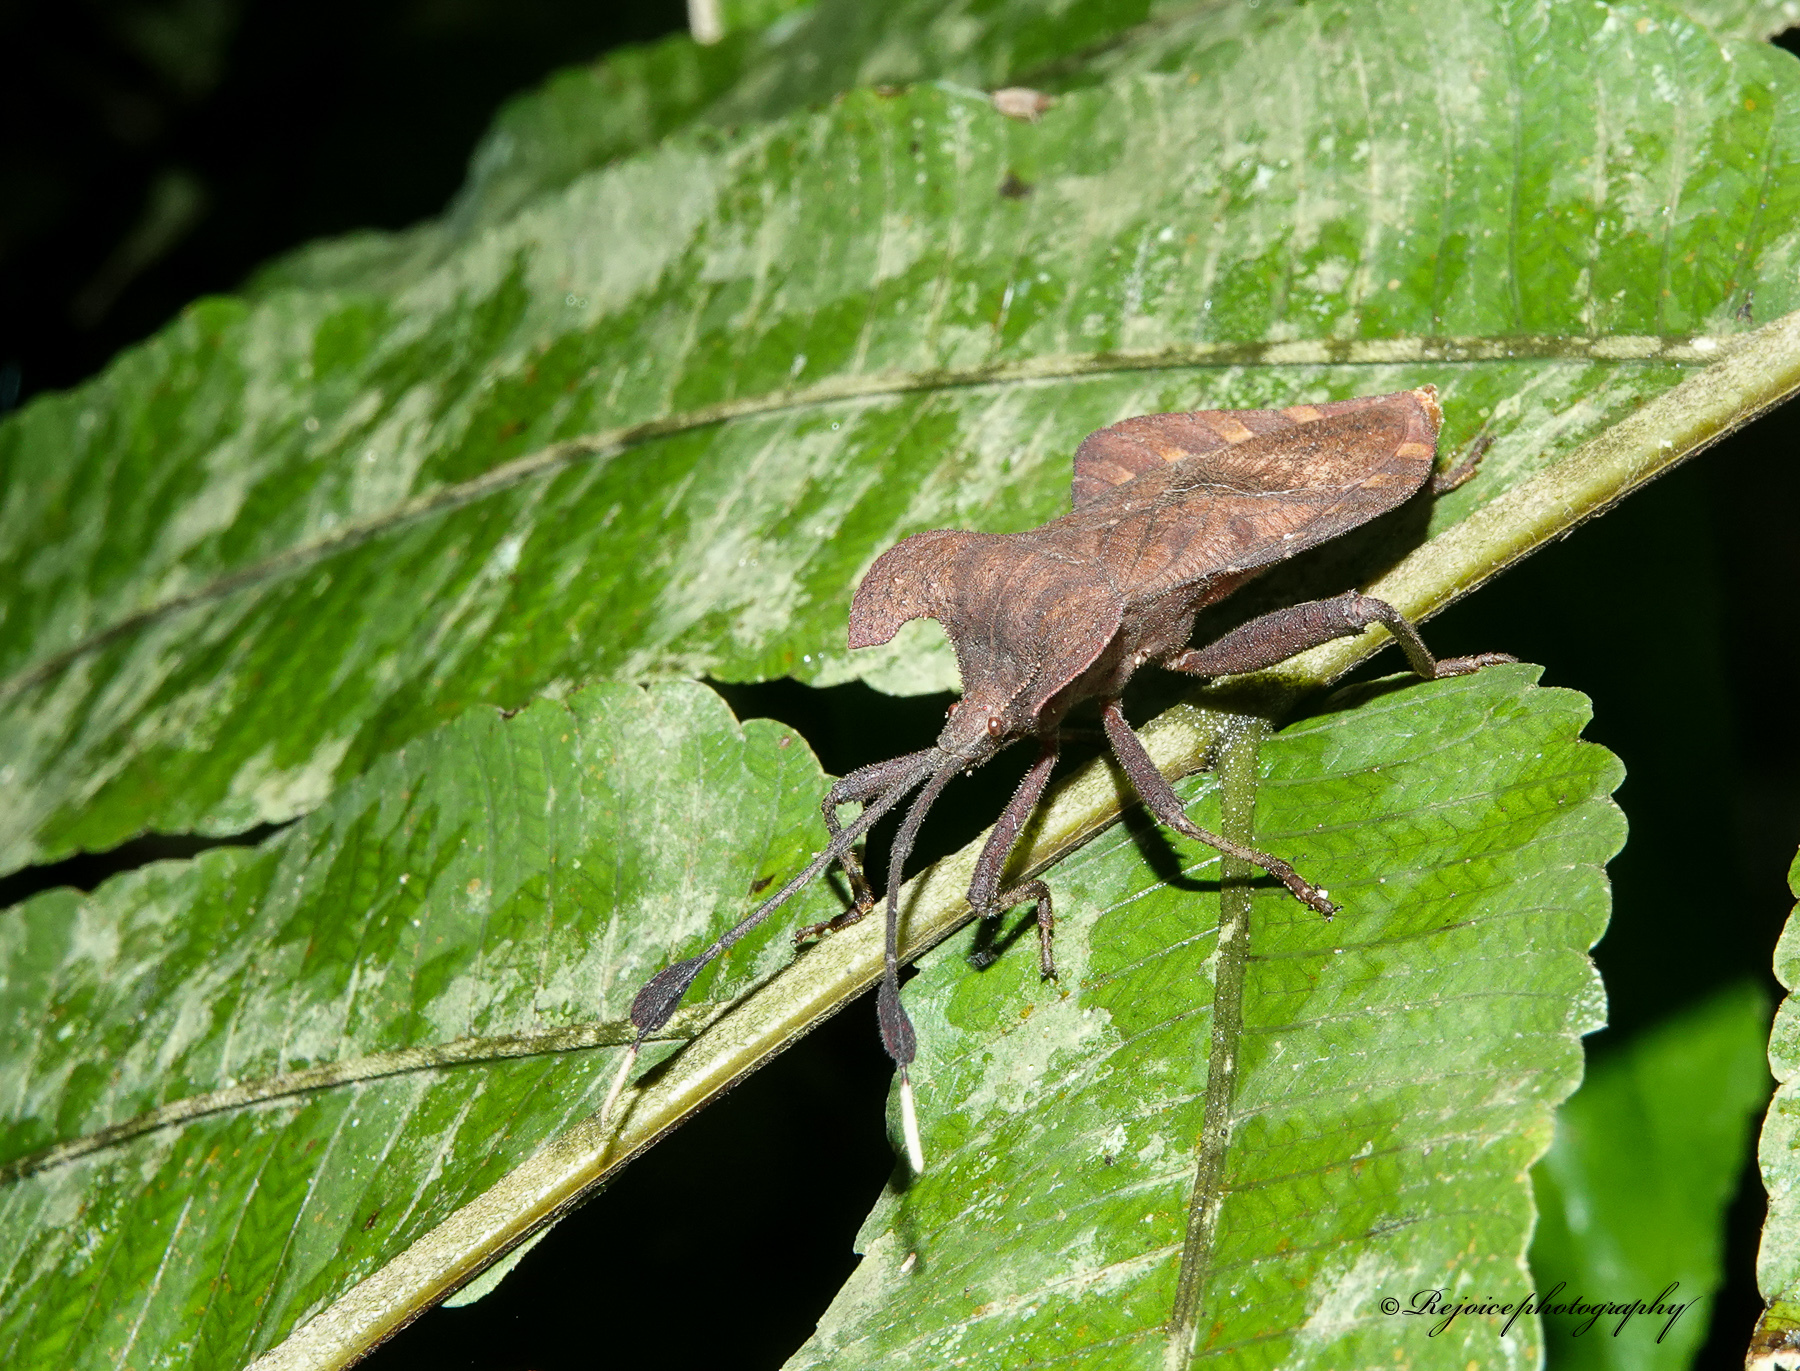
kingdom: Animalia
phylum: Arthropoda
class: Insecta
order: Hemiptera
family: Coreidae
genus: Dalader
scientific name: Dalader distanti
